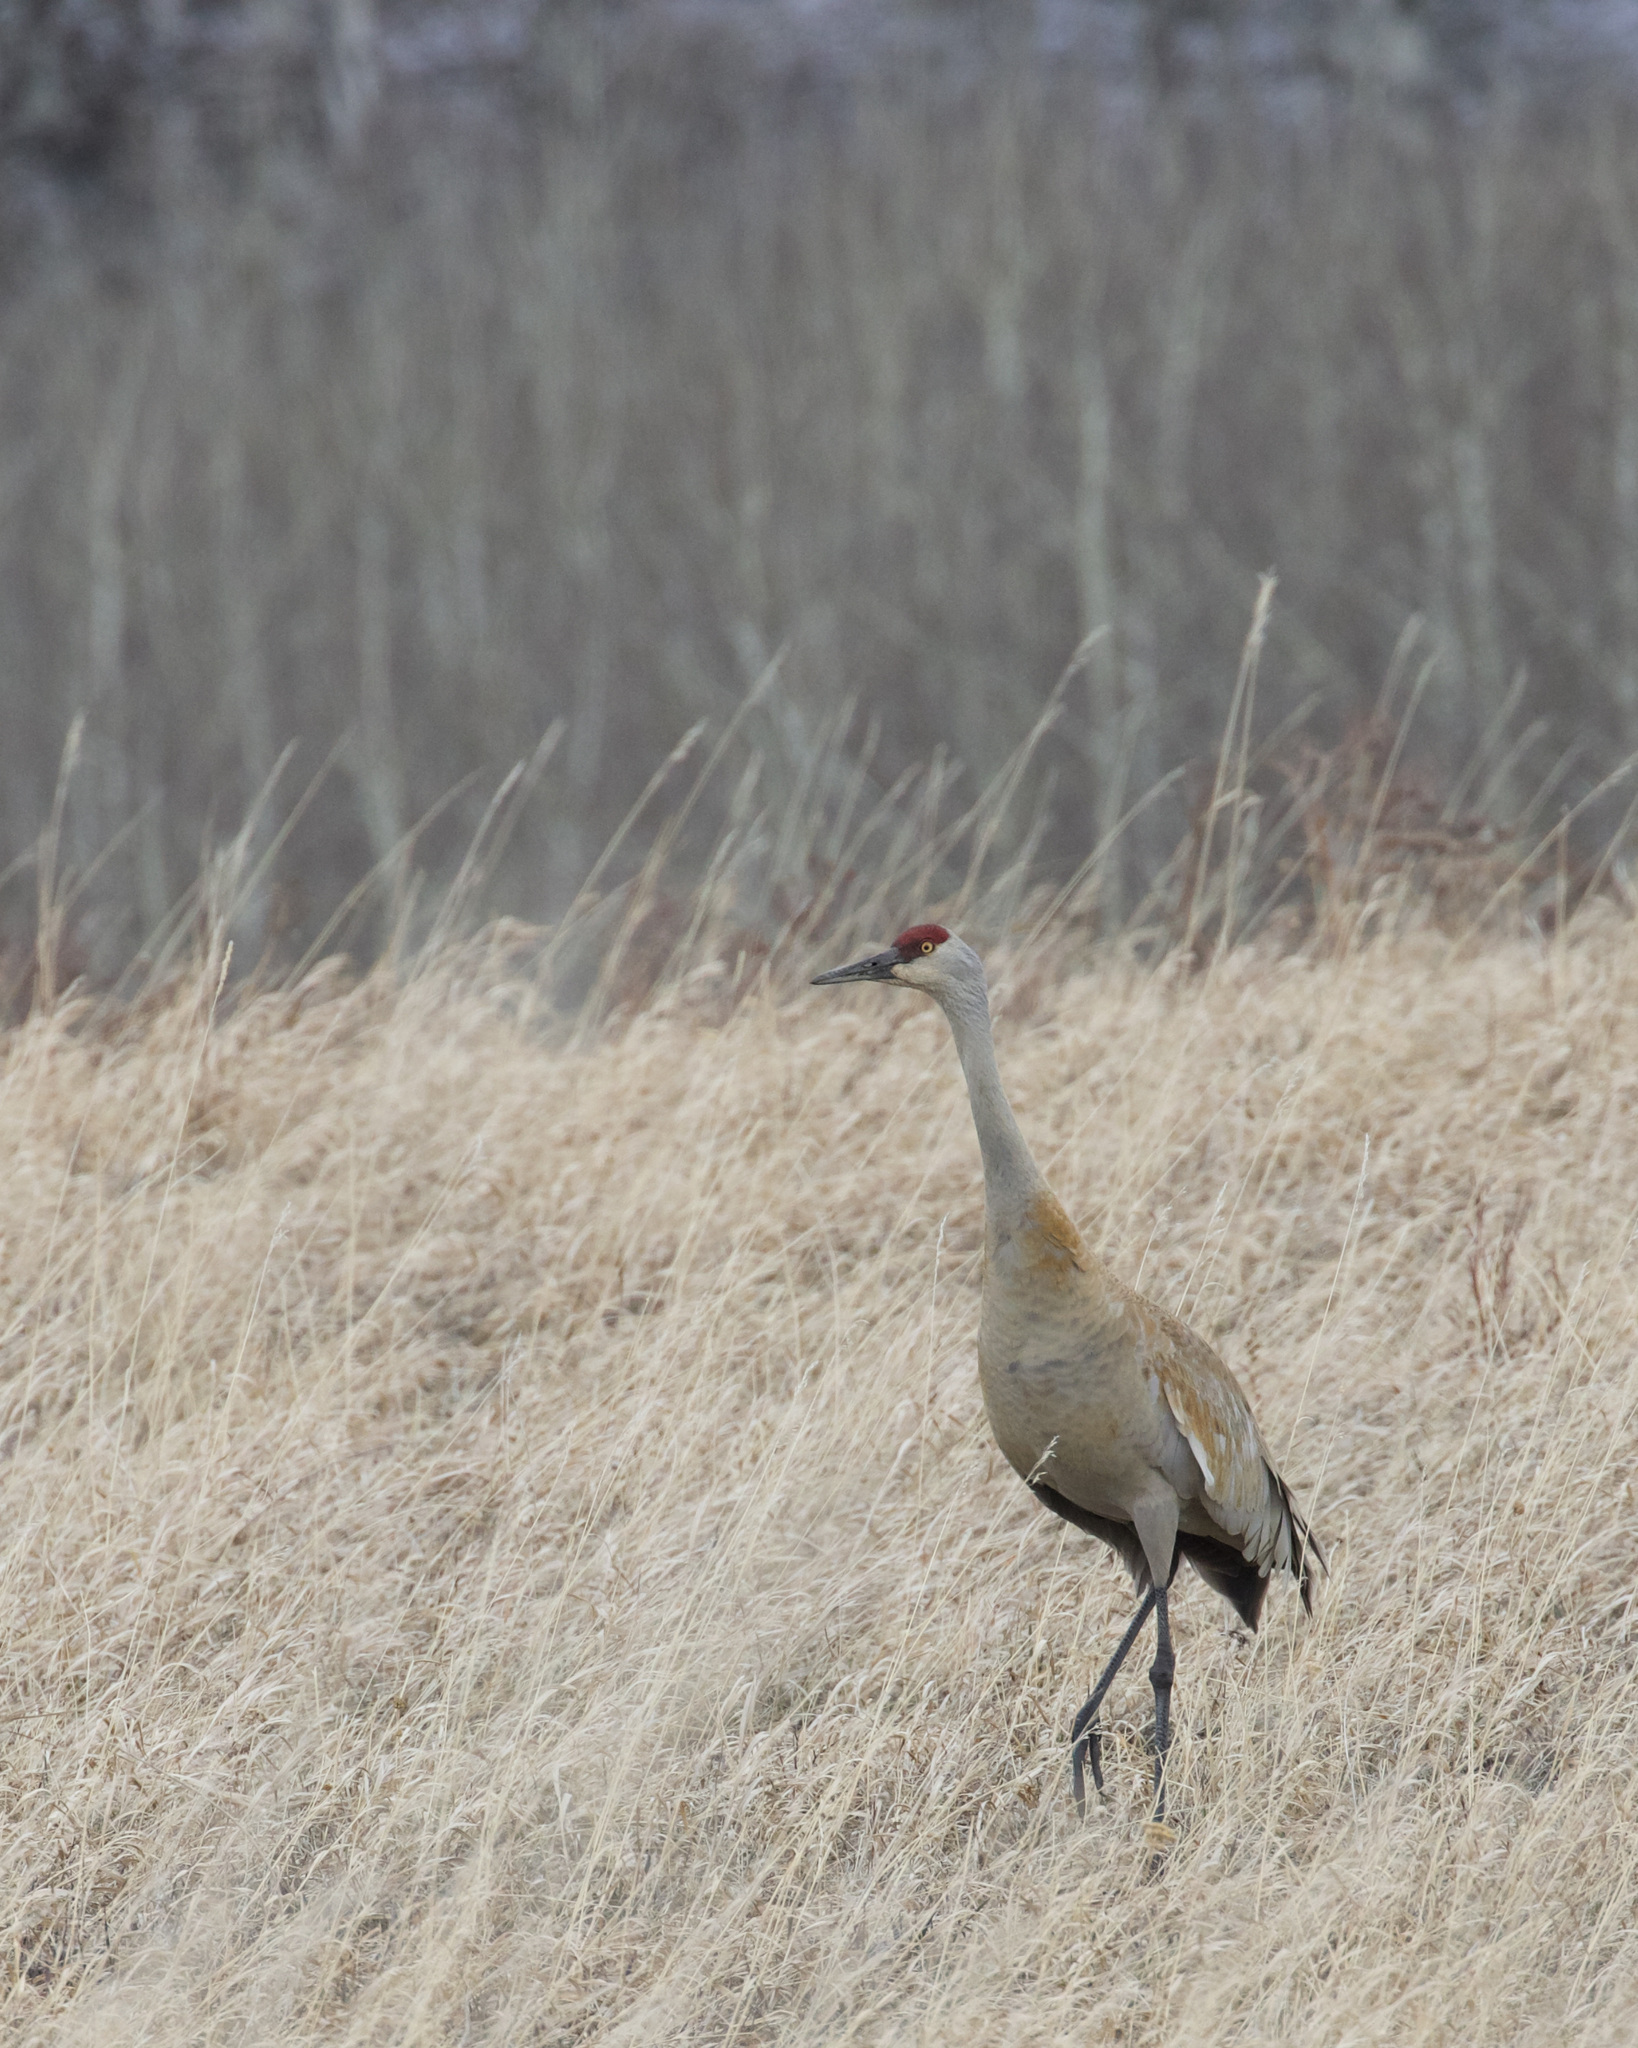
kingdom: Animalia
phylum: Chordata
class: Aves
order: Gruiformes
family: Gruidae
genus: Grus
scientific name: Grus canadensis
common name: Sandhill crane
